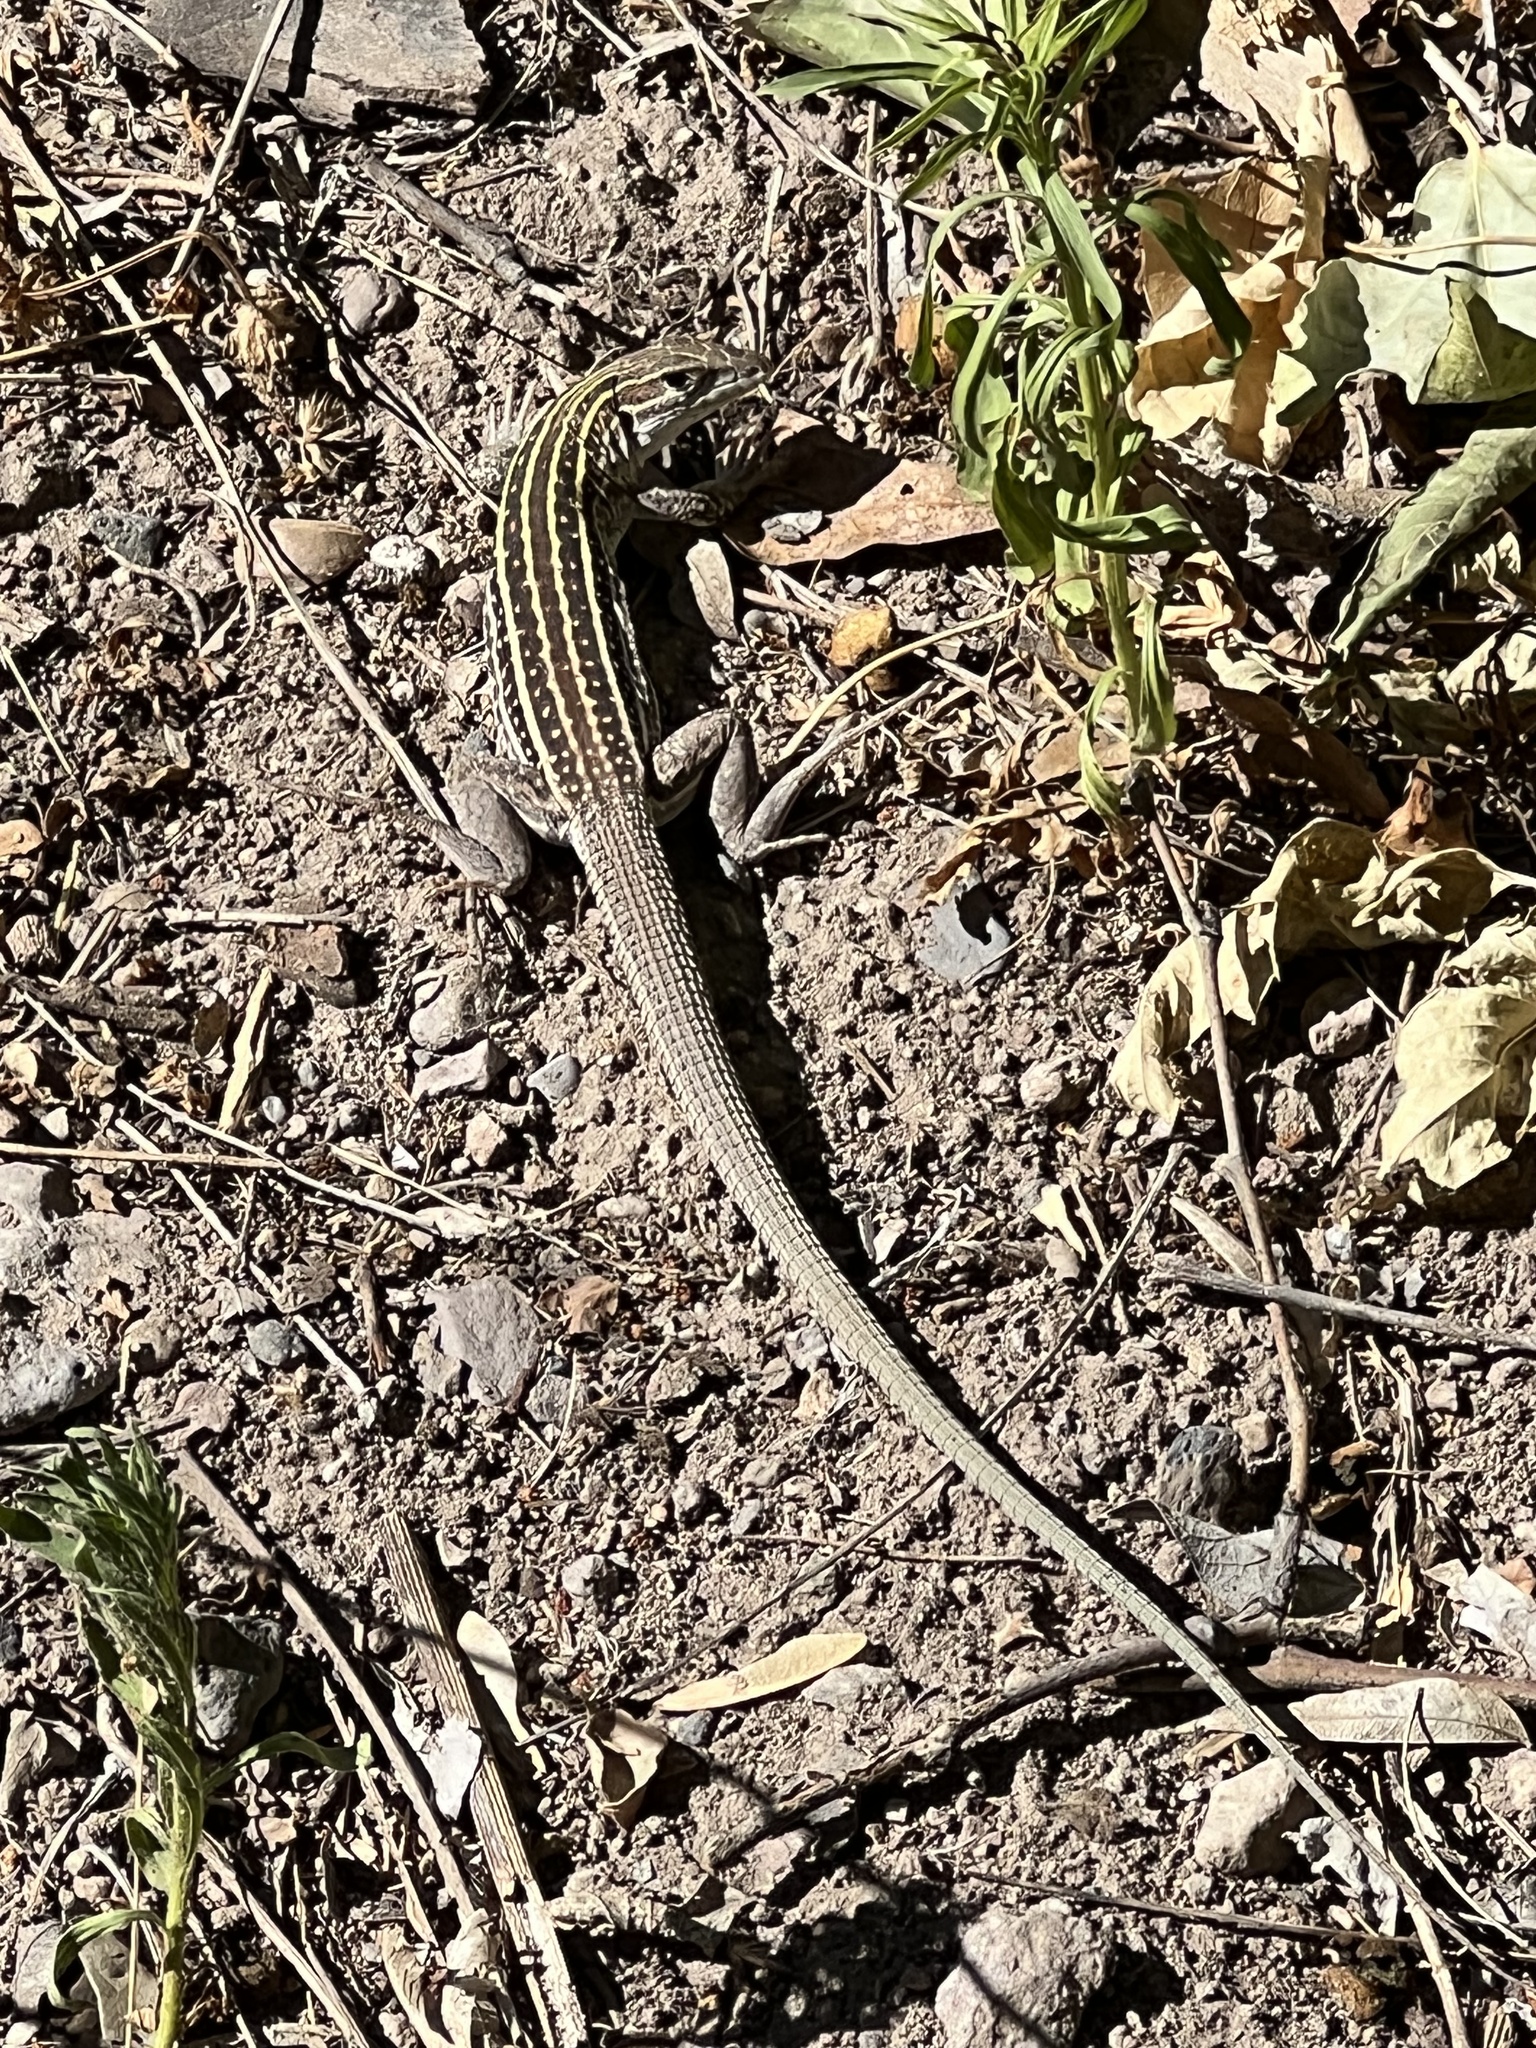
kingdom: Animalia
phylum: Chordata
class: Squamata
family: Teiidae
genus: Aspidoscelis
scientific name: Aspidoscelis sonorae
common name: Sonoran spotted whiptail
